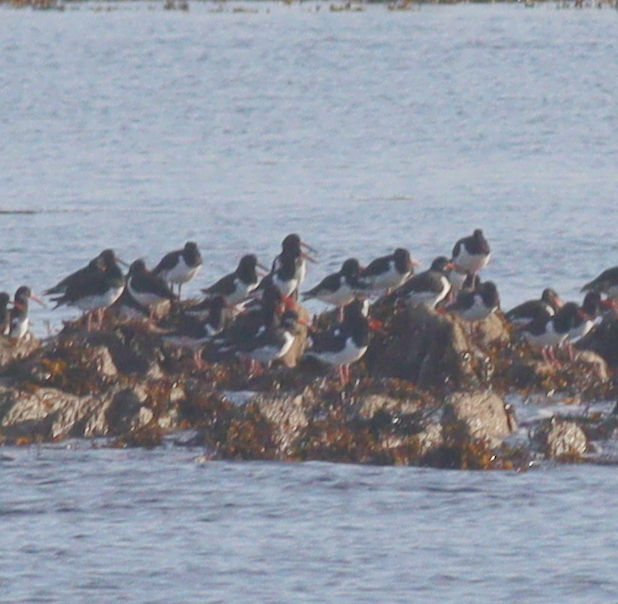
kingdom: Animalia
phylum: Chordata
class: Aves
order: Charadriiformes
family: Haematopodidae
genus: Haematopus
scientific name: Haematopus ostralegus
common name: Eurasian oystercatcher
